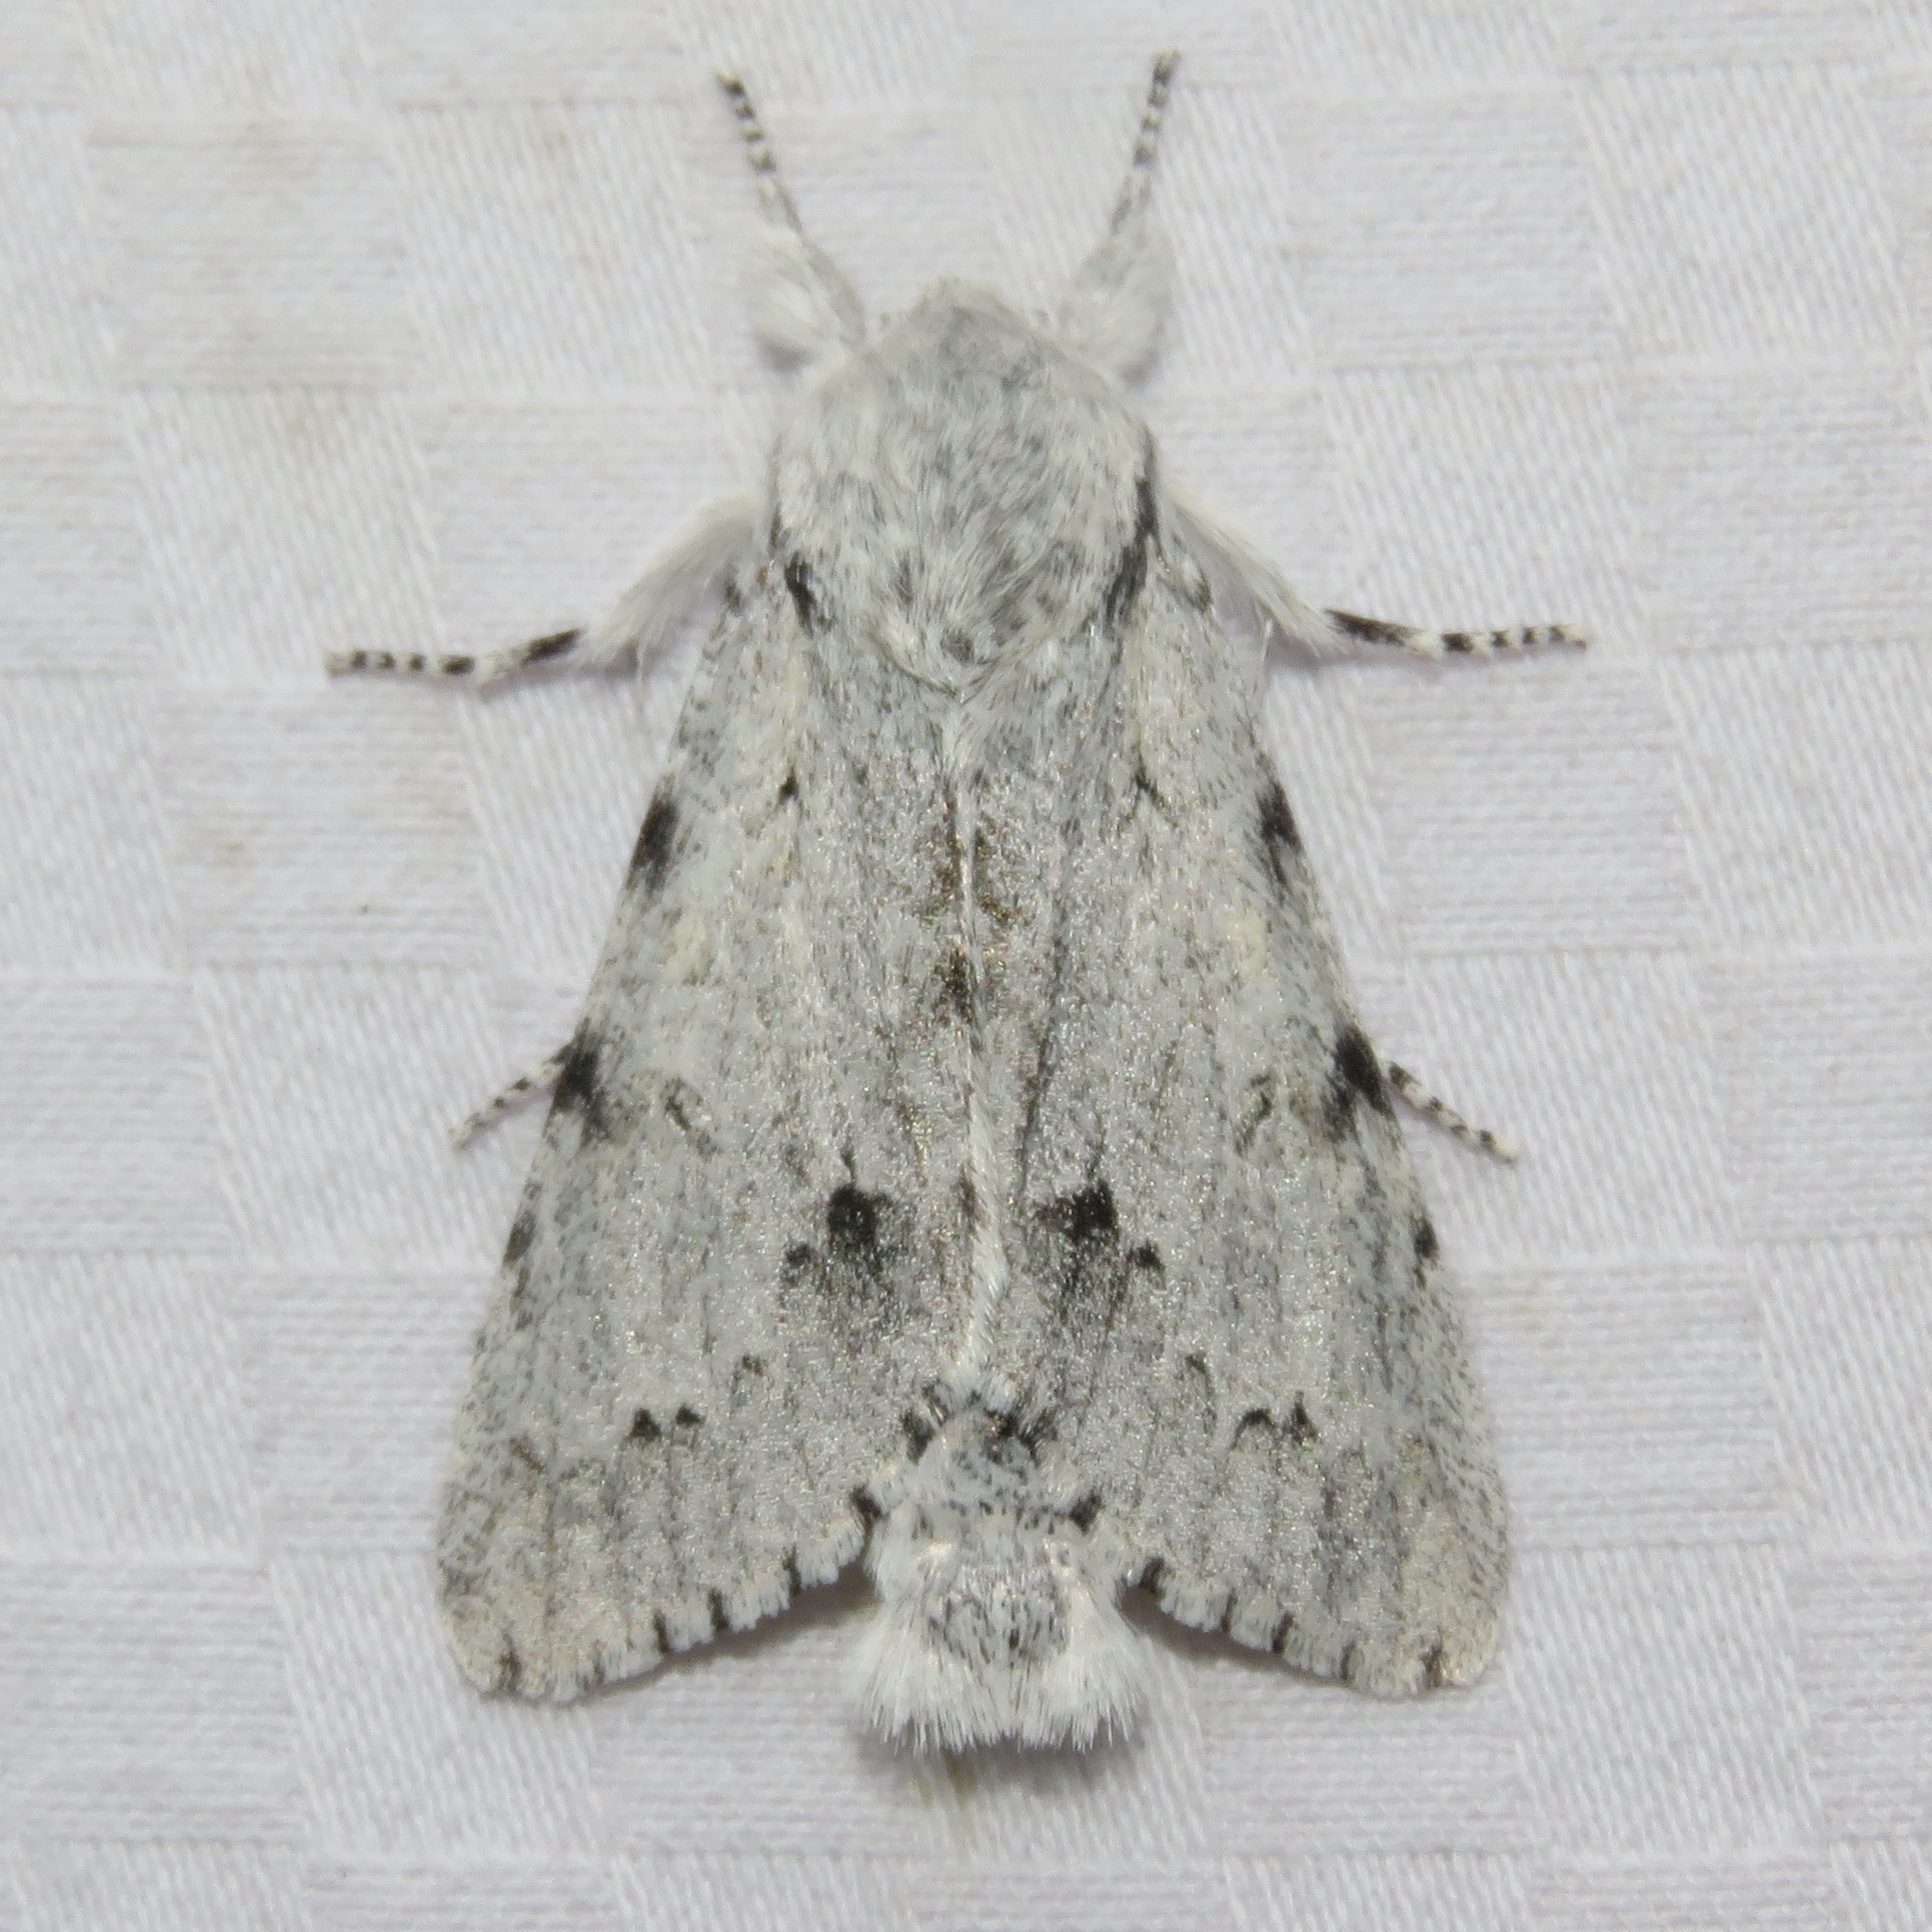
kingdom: Animalia
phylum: Arthropoda
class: Insecta
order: Lepidoptera
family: Noctuidae
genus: Acronicta
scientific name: Acronicta lepusculina
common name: Cottonwood dagger
